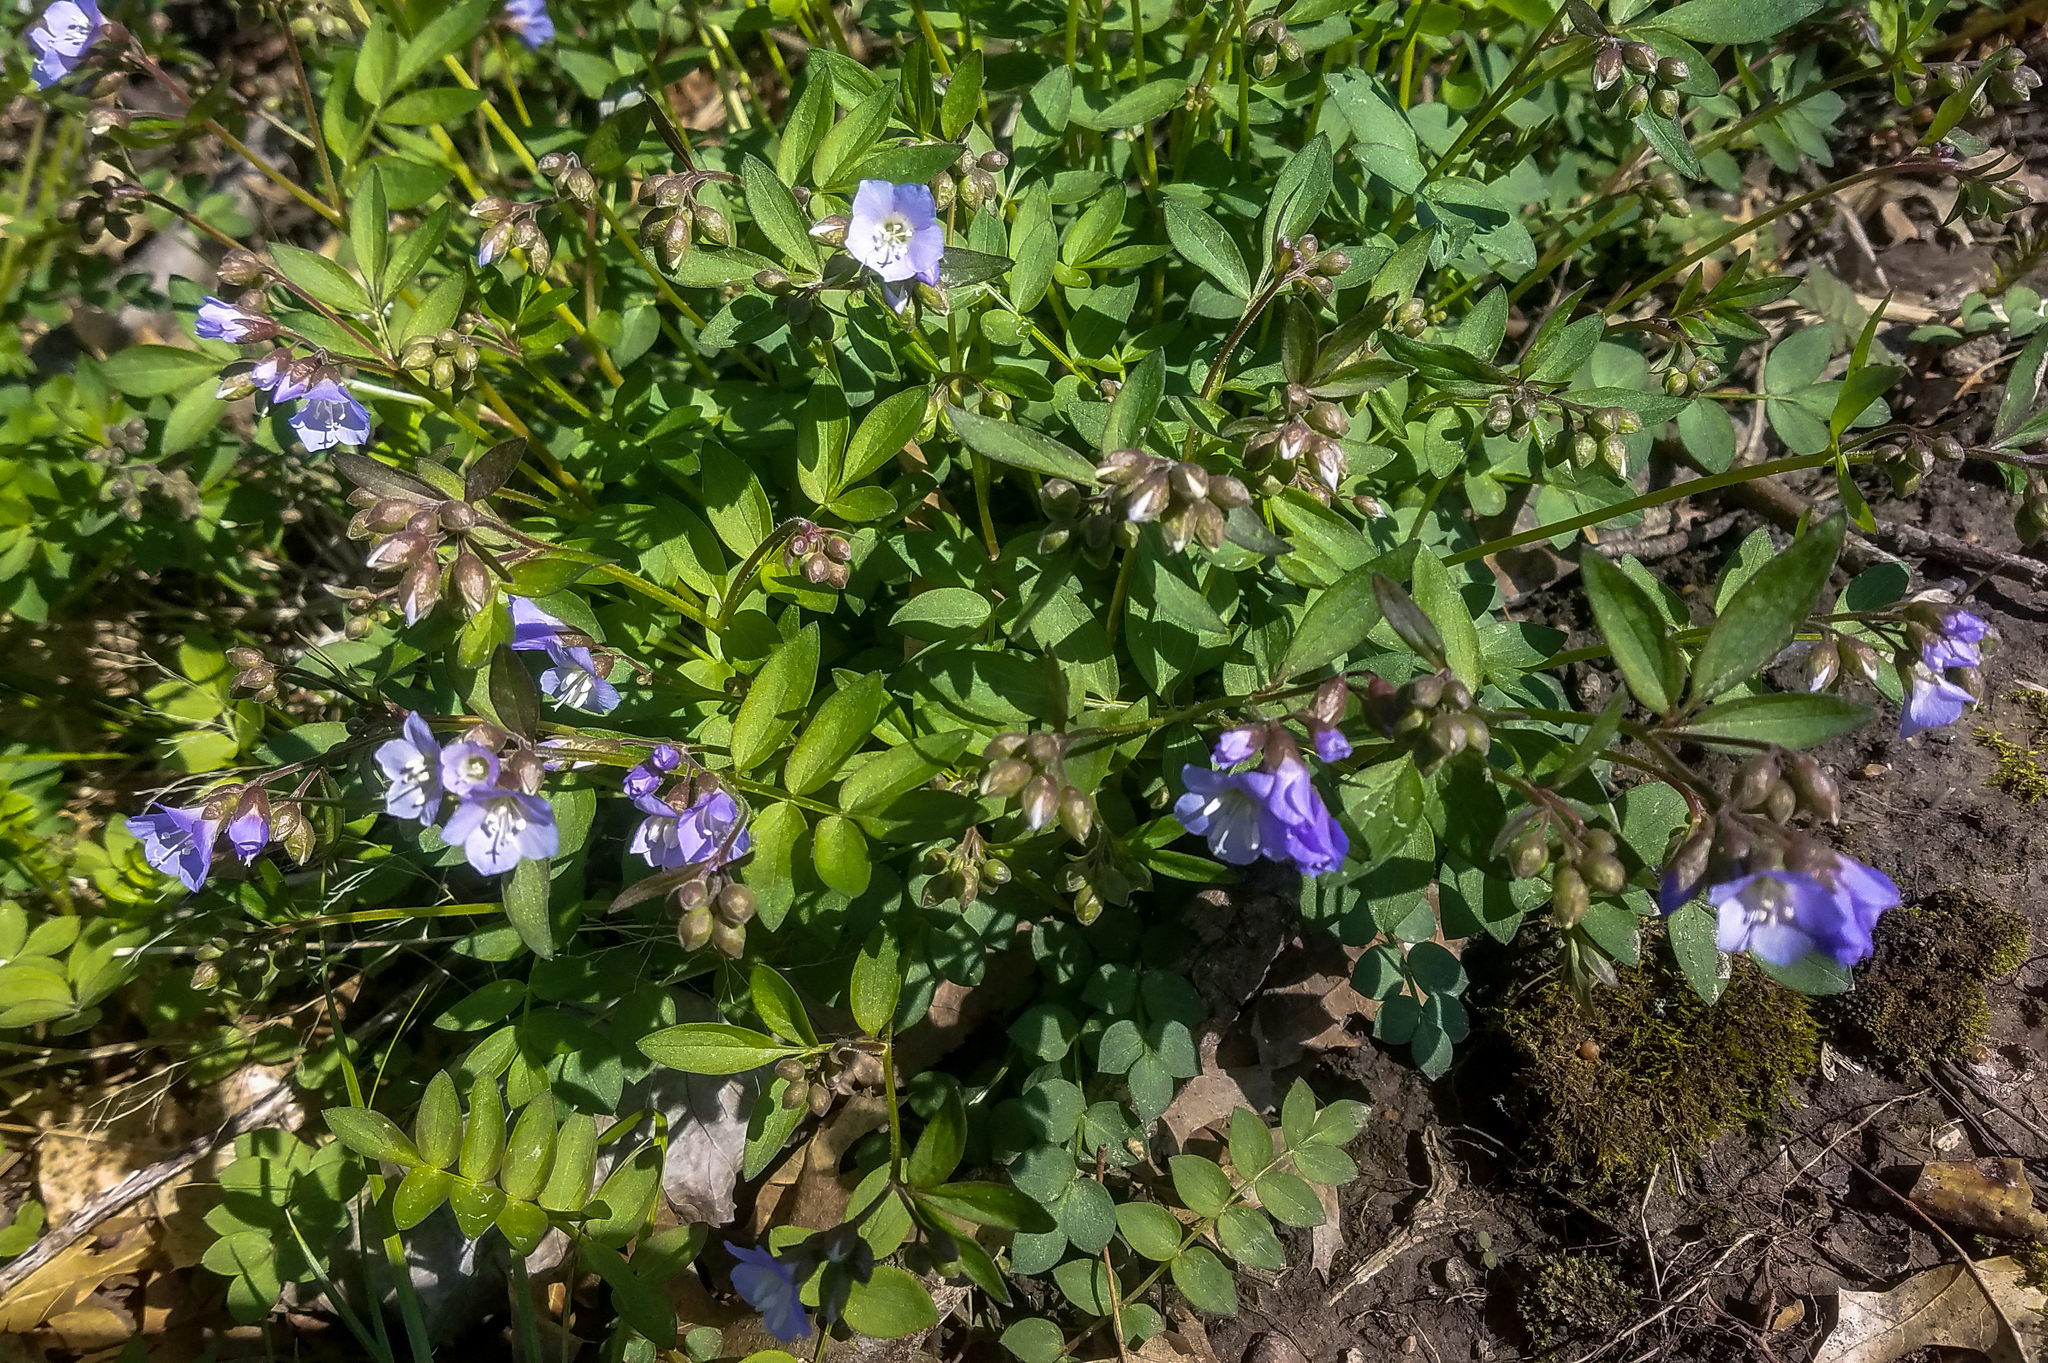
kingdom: Plantae
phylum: Tracheophyta
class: Magnoliopsida
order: Ericales
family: Polemoniaceae
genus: Polemonium
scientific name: Polemonium reptans
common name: Creeping jacob's-ladder
